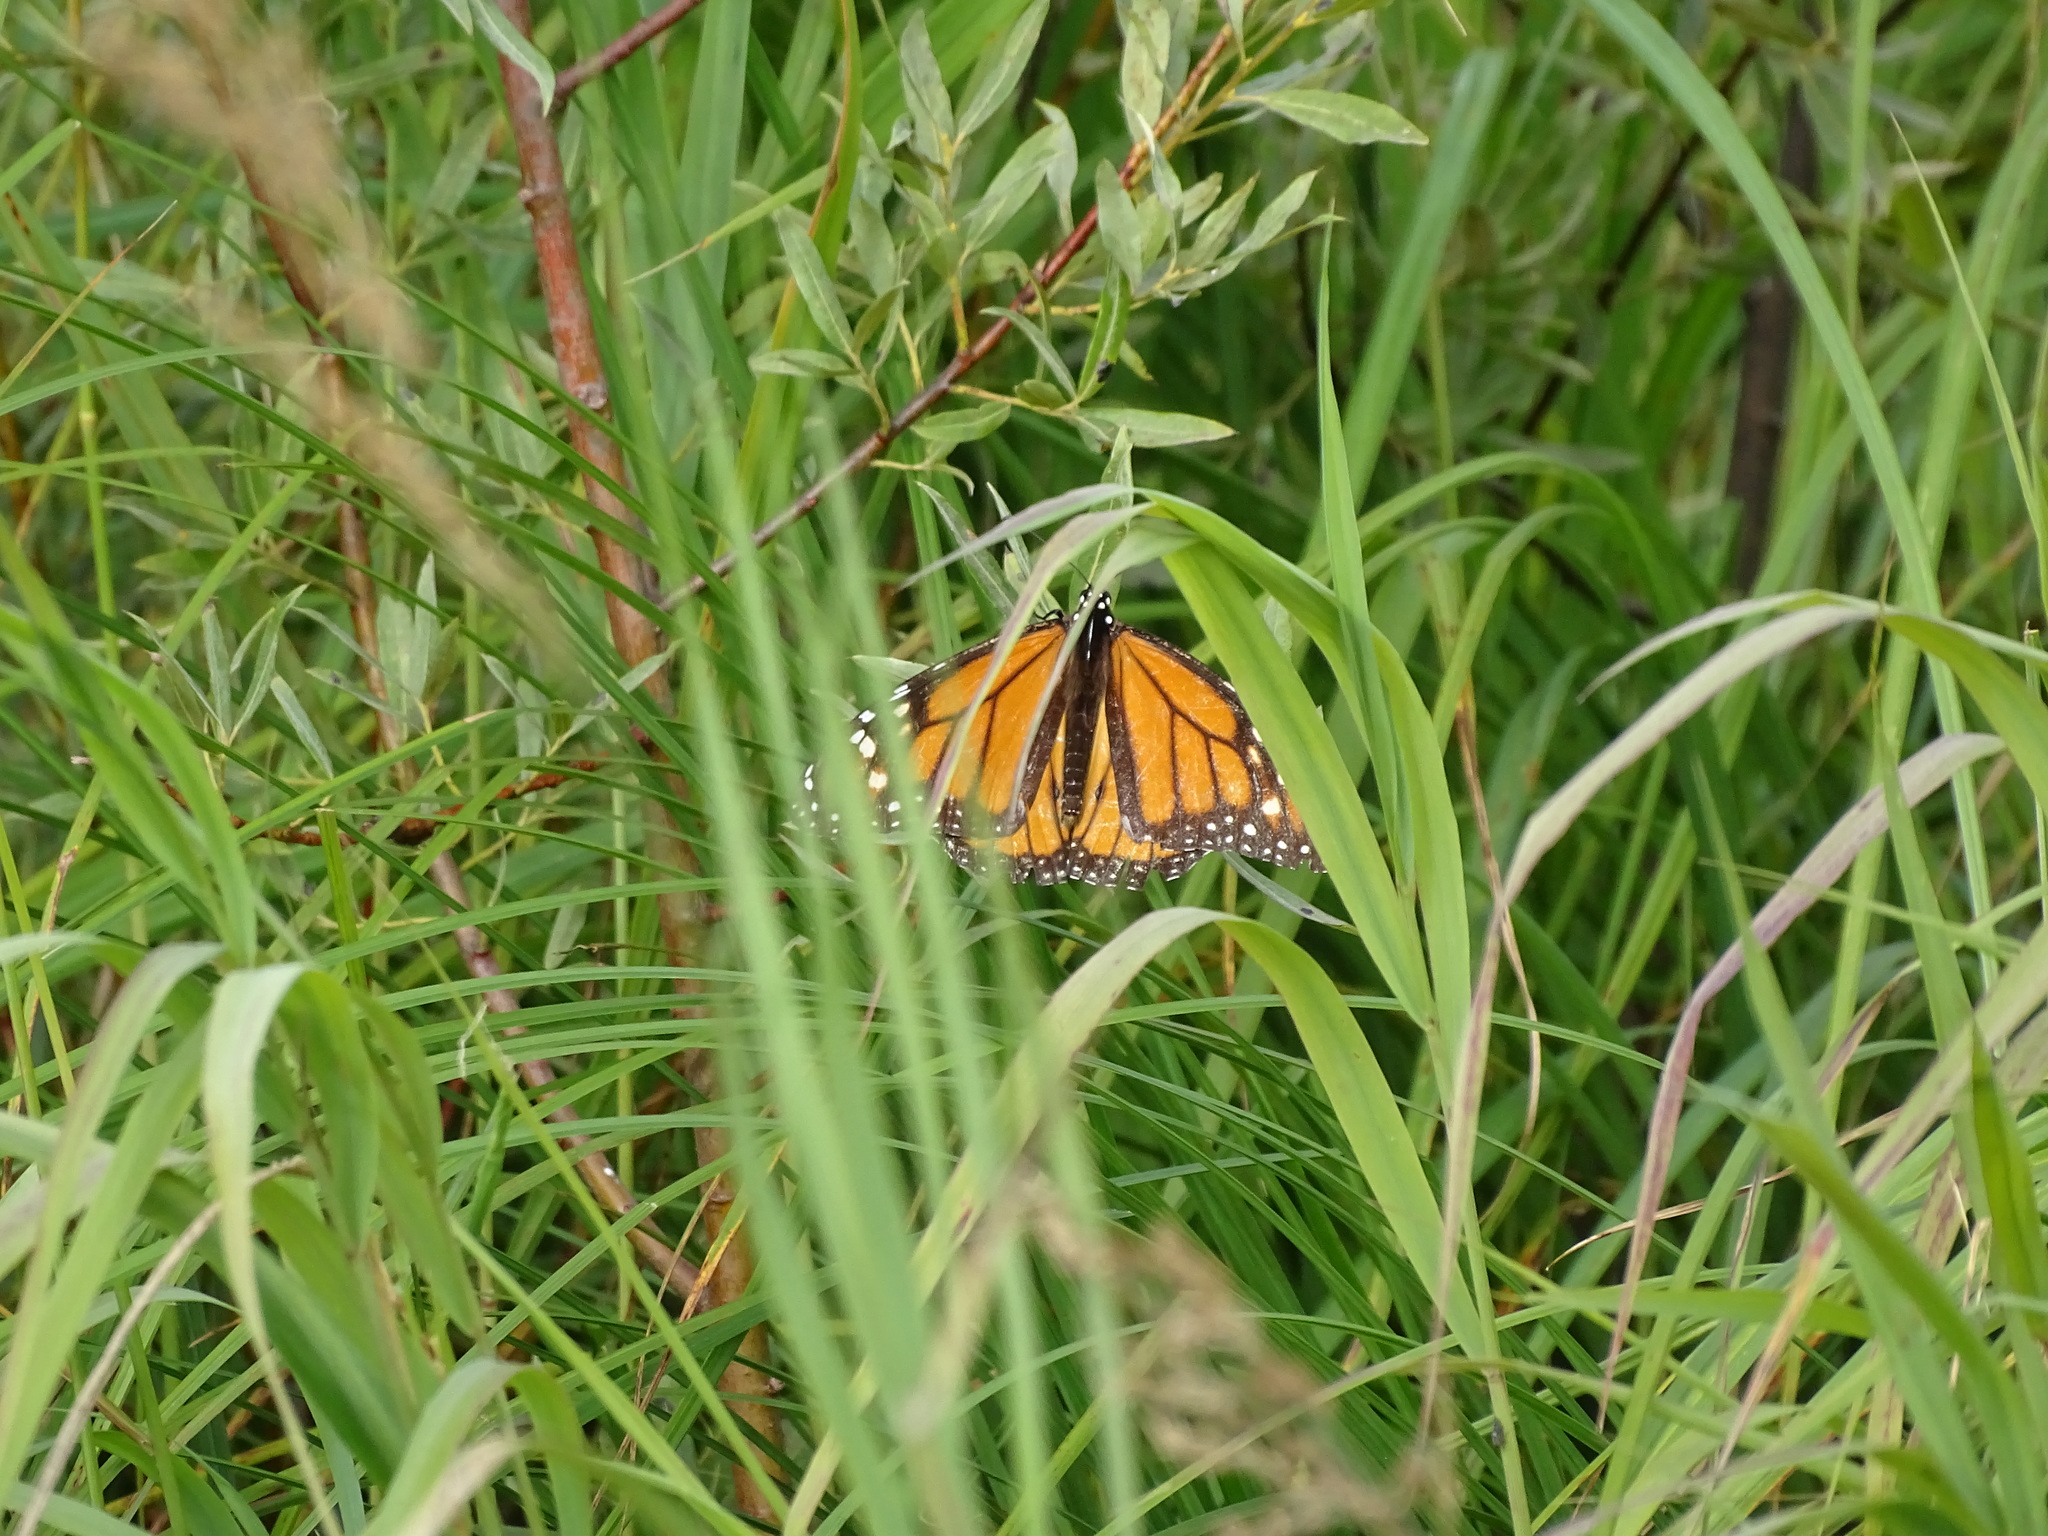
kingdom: Animalia
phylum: Arthropoda
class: Insecta
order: Lepidoptera
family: Nymphalidae
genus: Danaus
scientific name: Danaus plexippus
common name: Monarch
